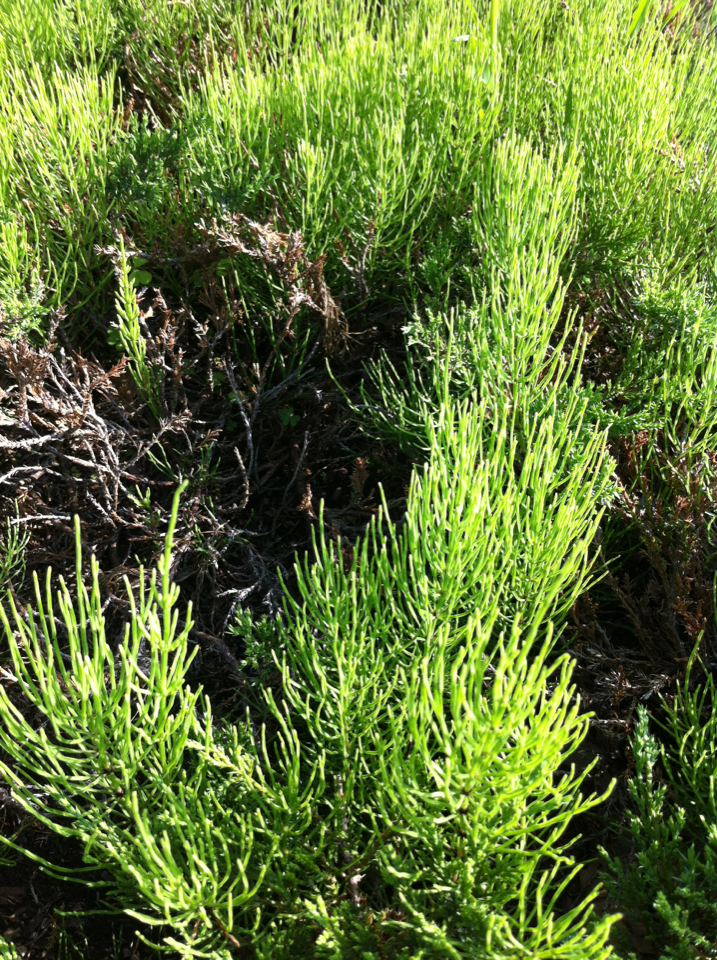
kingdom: Plantae
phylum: Tracheophyta
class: Polypodiopsida
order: Equisetales
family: Equisetaceae
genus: Equisetum
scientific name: Equisetum arvense
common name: Field horsetail
